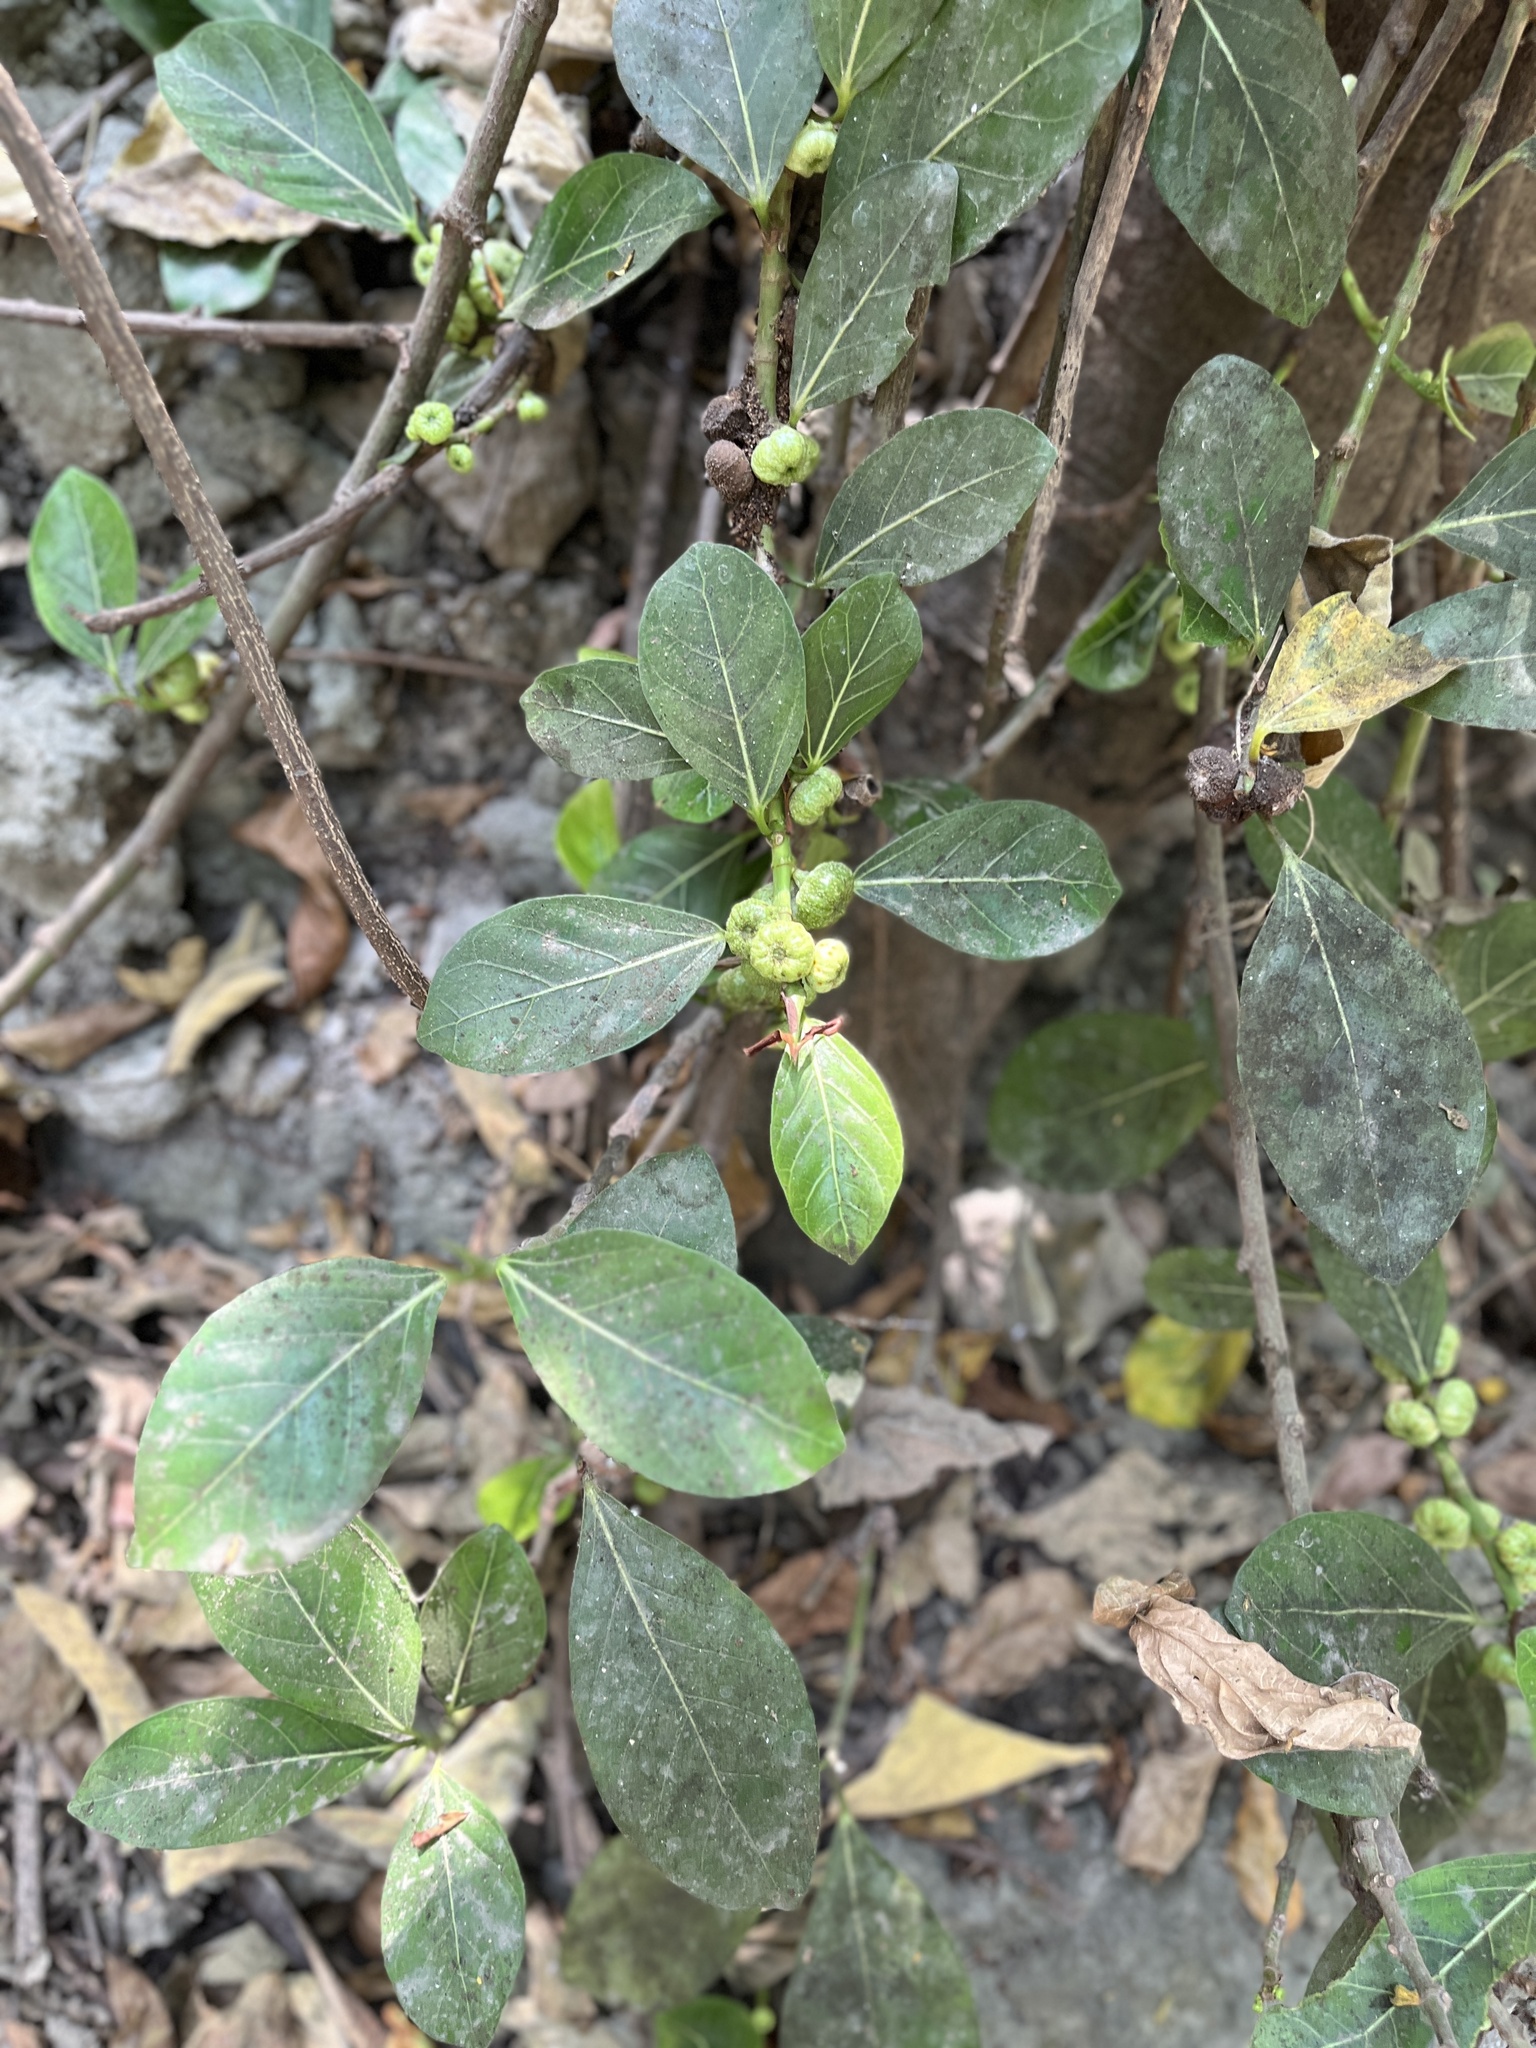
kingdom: Plantae
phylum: Tracheophyta
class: Magnoliopsida
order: Rosales
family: Moraceae
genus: Ficus
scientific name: Ficus septica
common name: Septic fig
